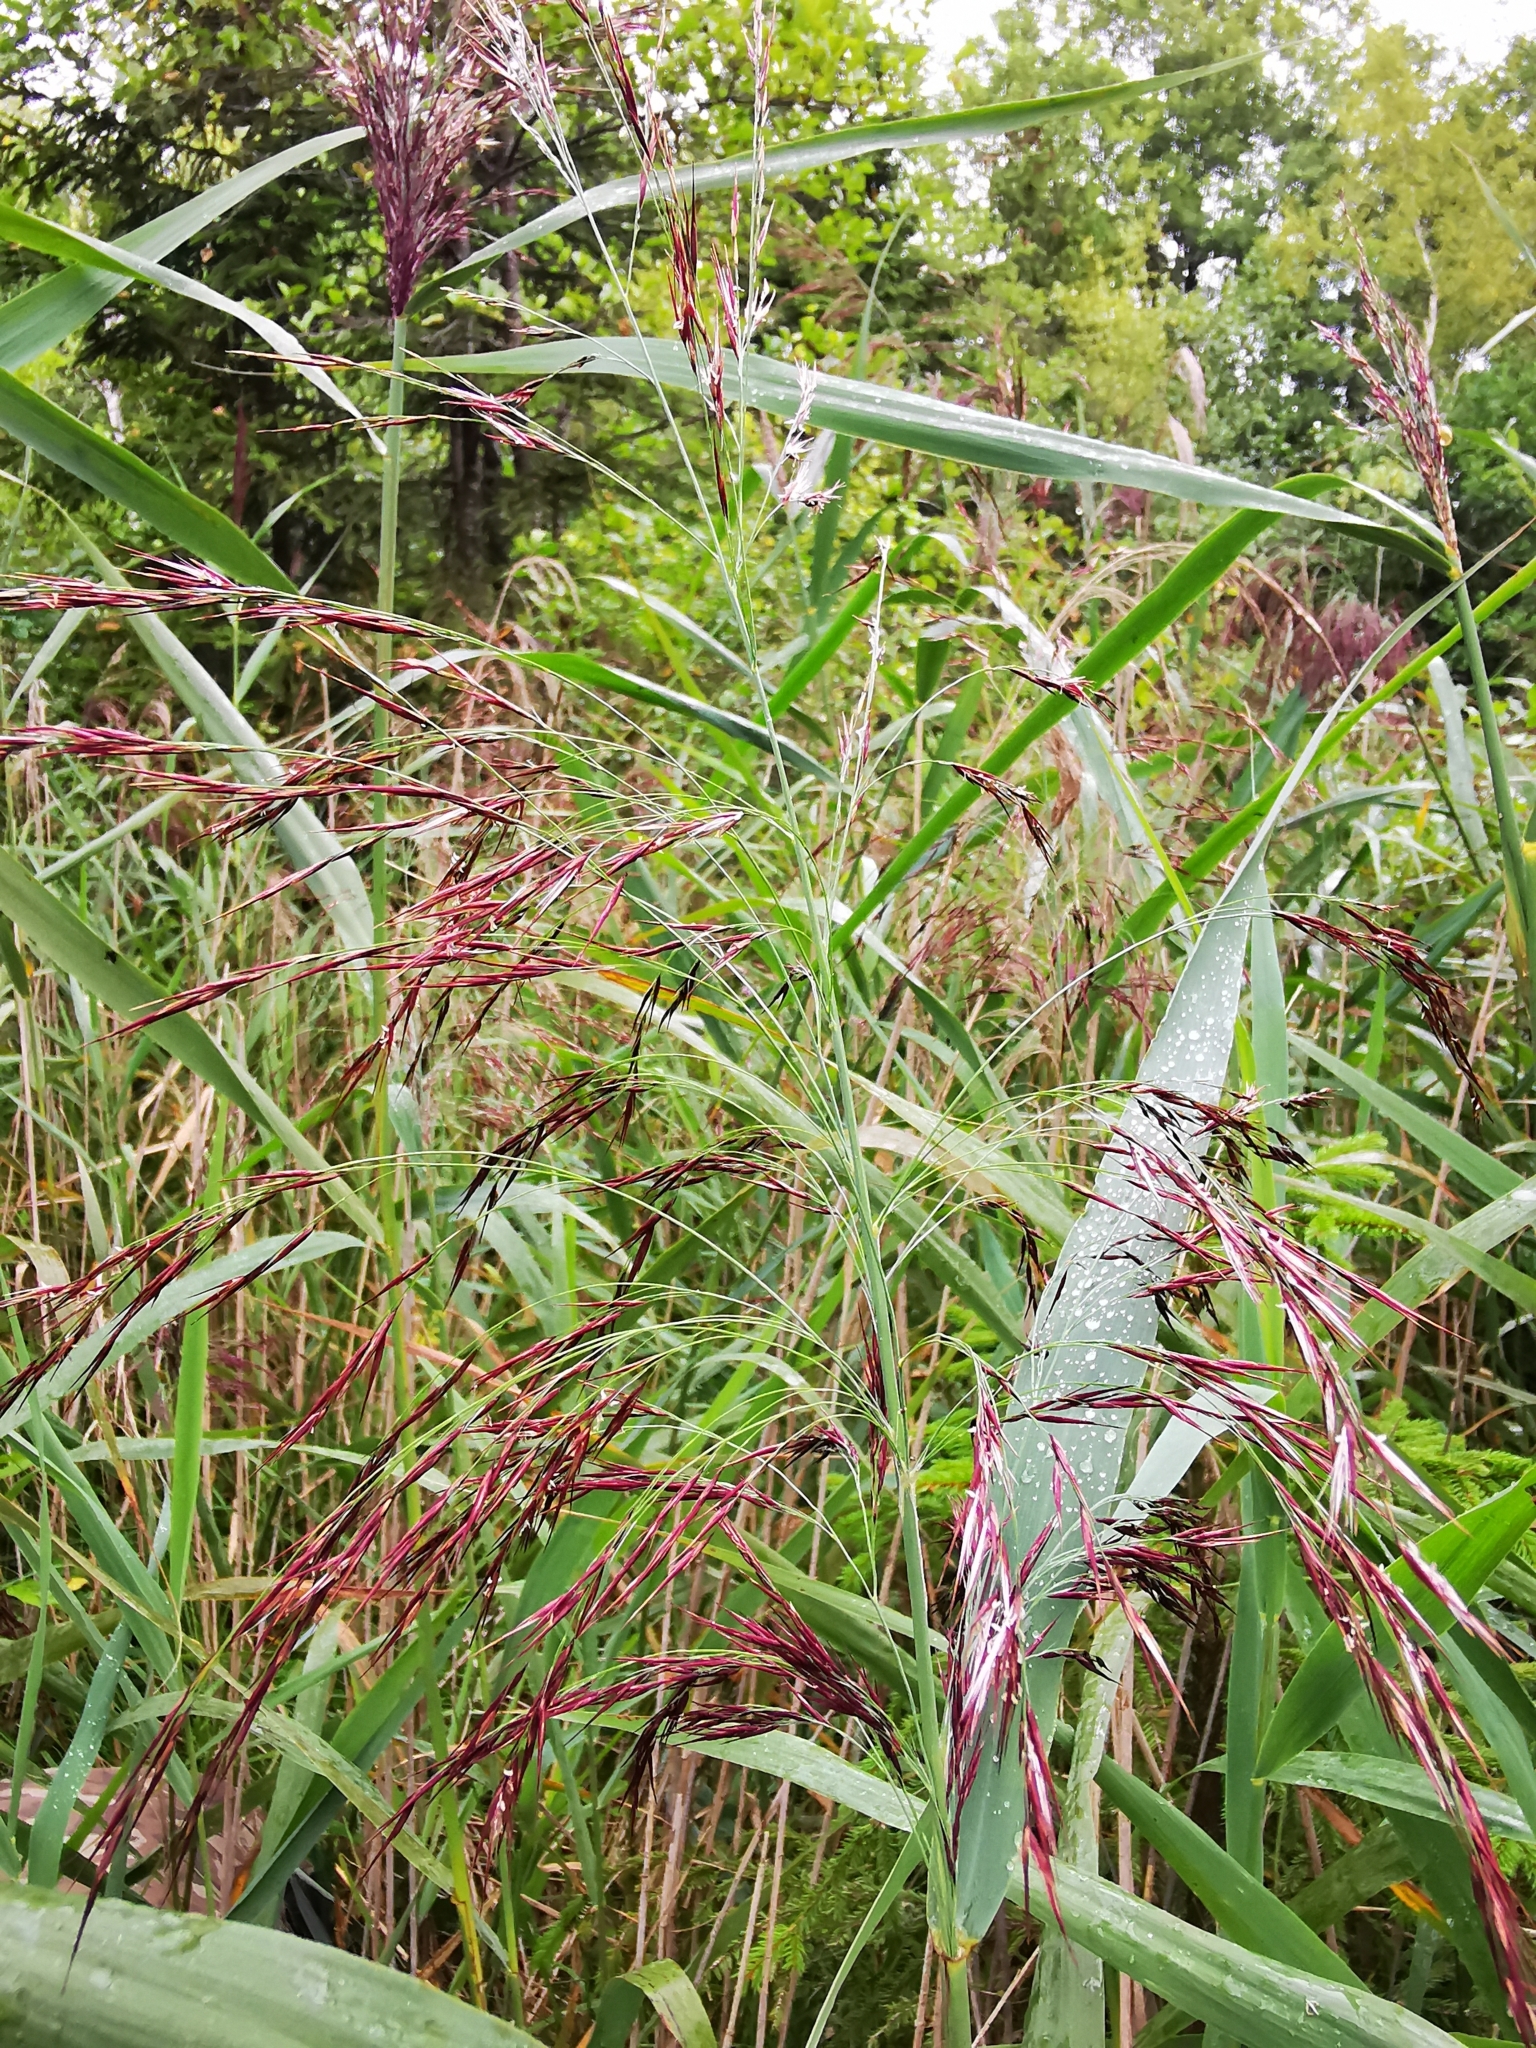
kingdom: Plantae
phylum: Tracheophyta
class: Liliopsida
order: Poales
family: Poaceae
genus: Phragmites
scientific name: Phragmites australis
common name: Common reed
